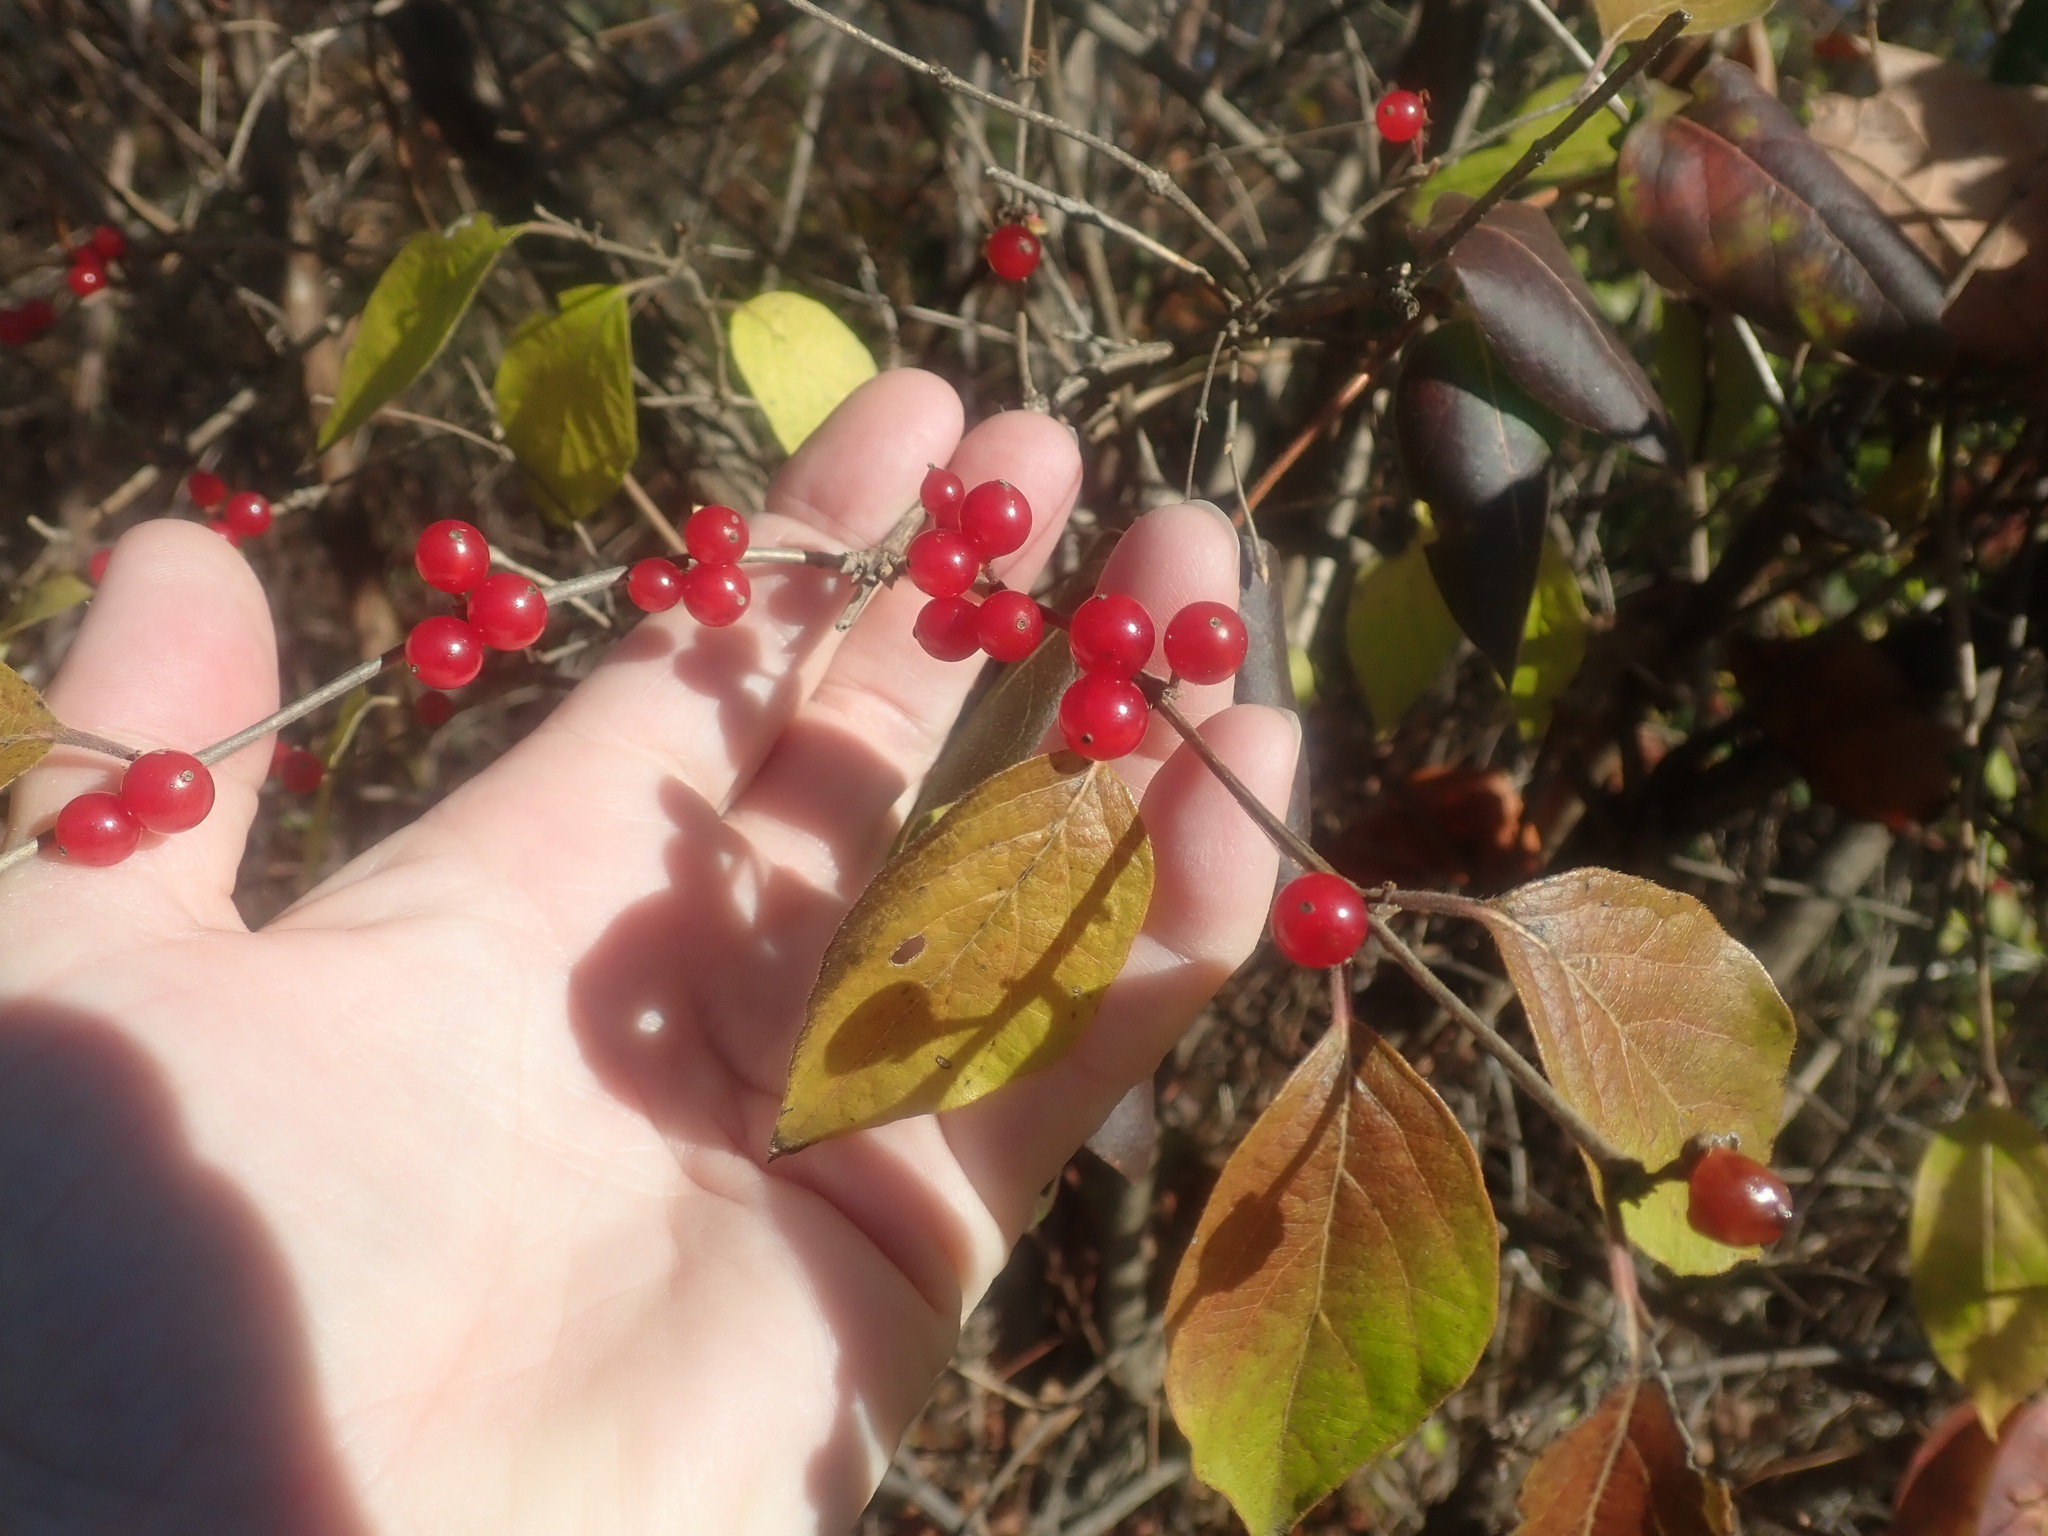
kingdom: Plantae
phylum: Tracheophyta
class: Magnoliopsida
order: Dipsacales
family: Caprifoliaceae
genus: Lonicera
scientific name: Lonicera maackii
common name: Amur honeysuckle
